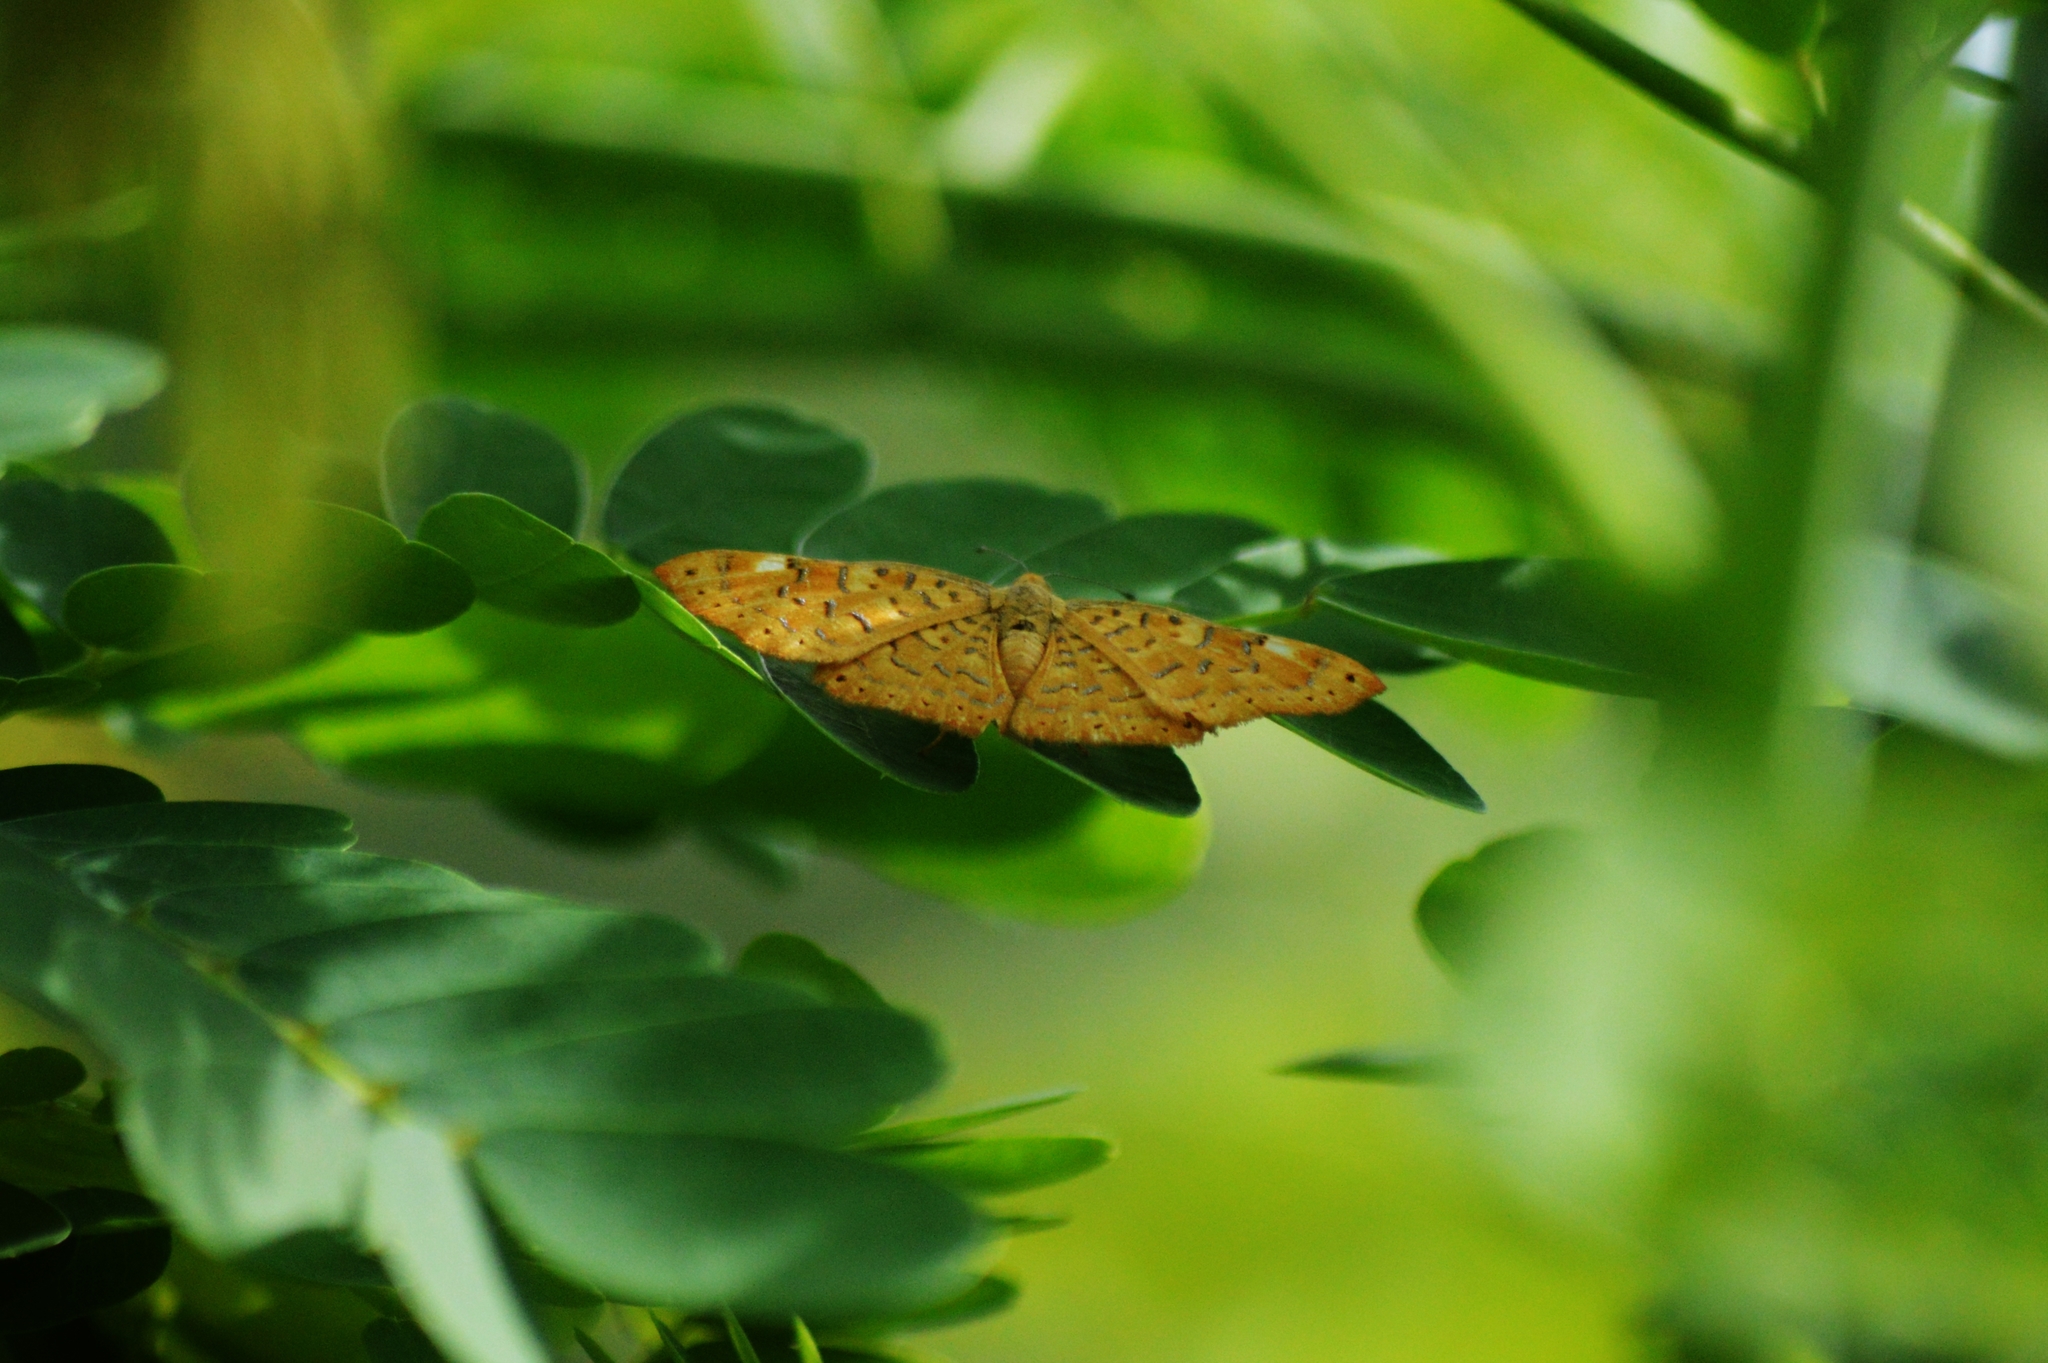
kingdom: Animalia
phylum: Arthropoda
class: Insecta
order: Lepidoptera
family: Lycaenidae
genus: Emesis
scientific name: Emesis fatima
